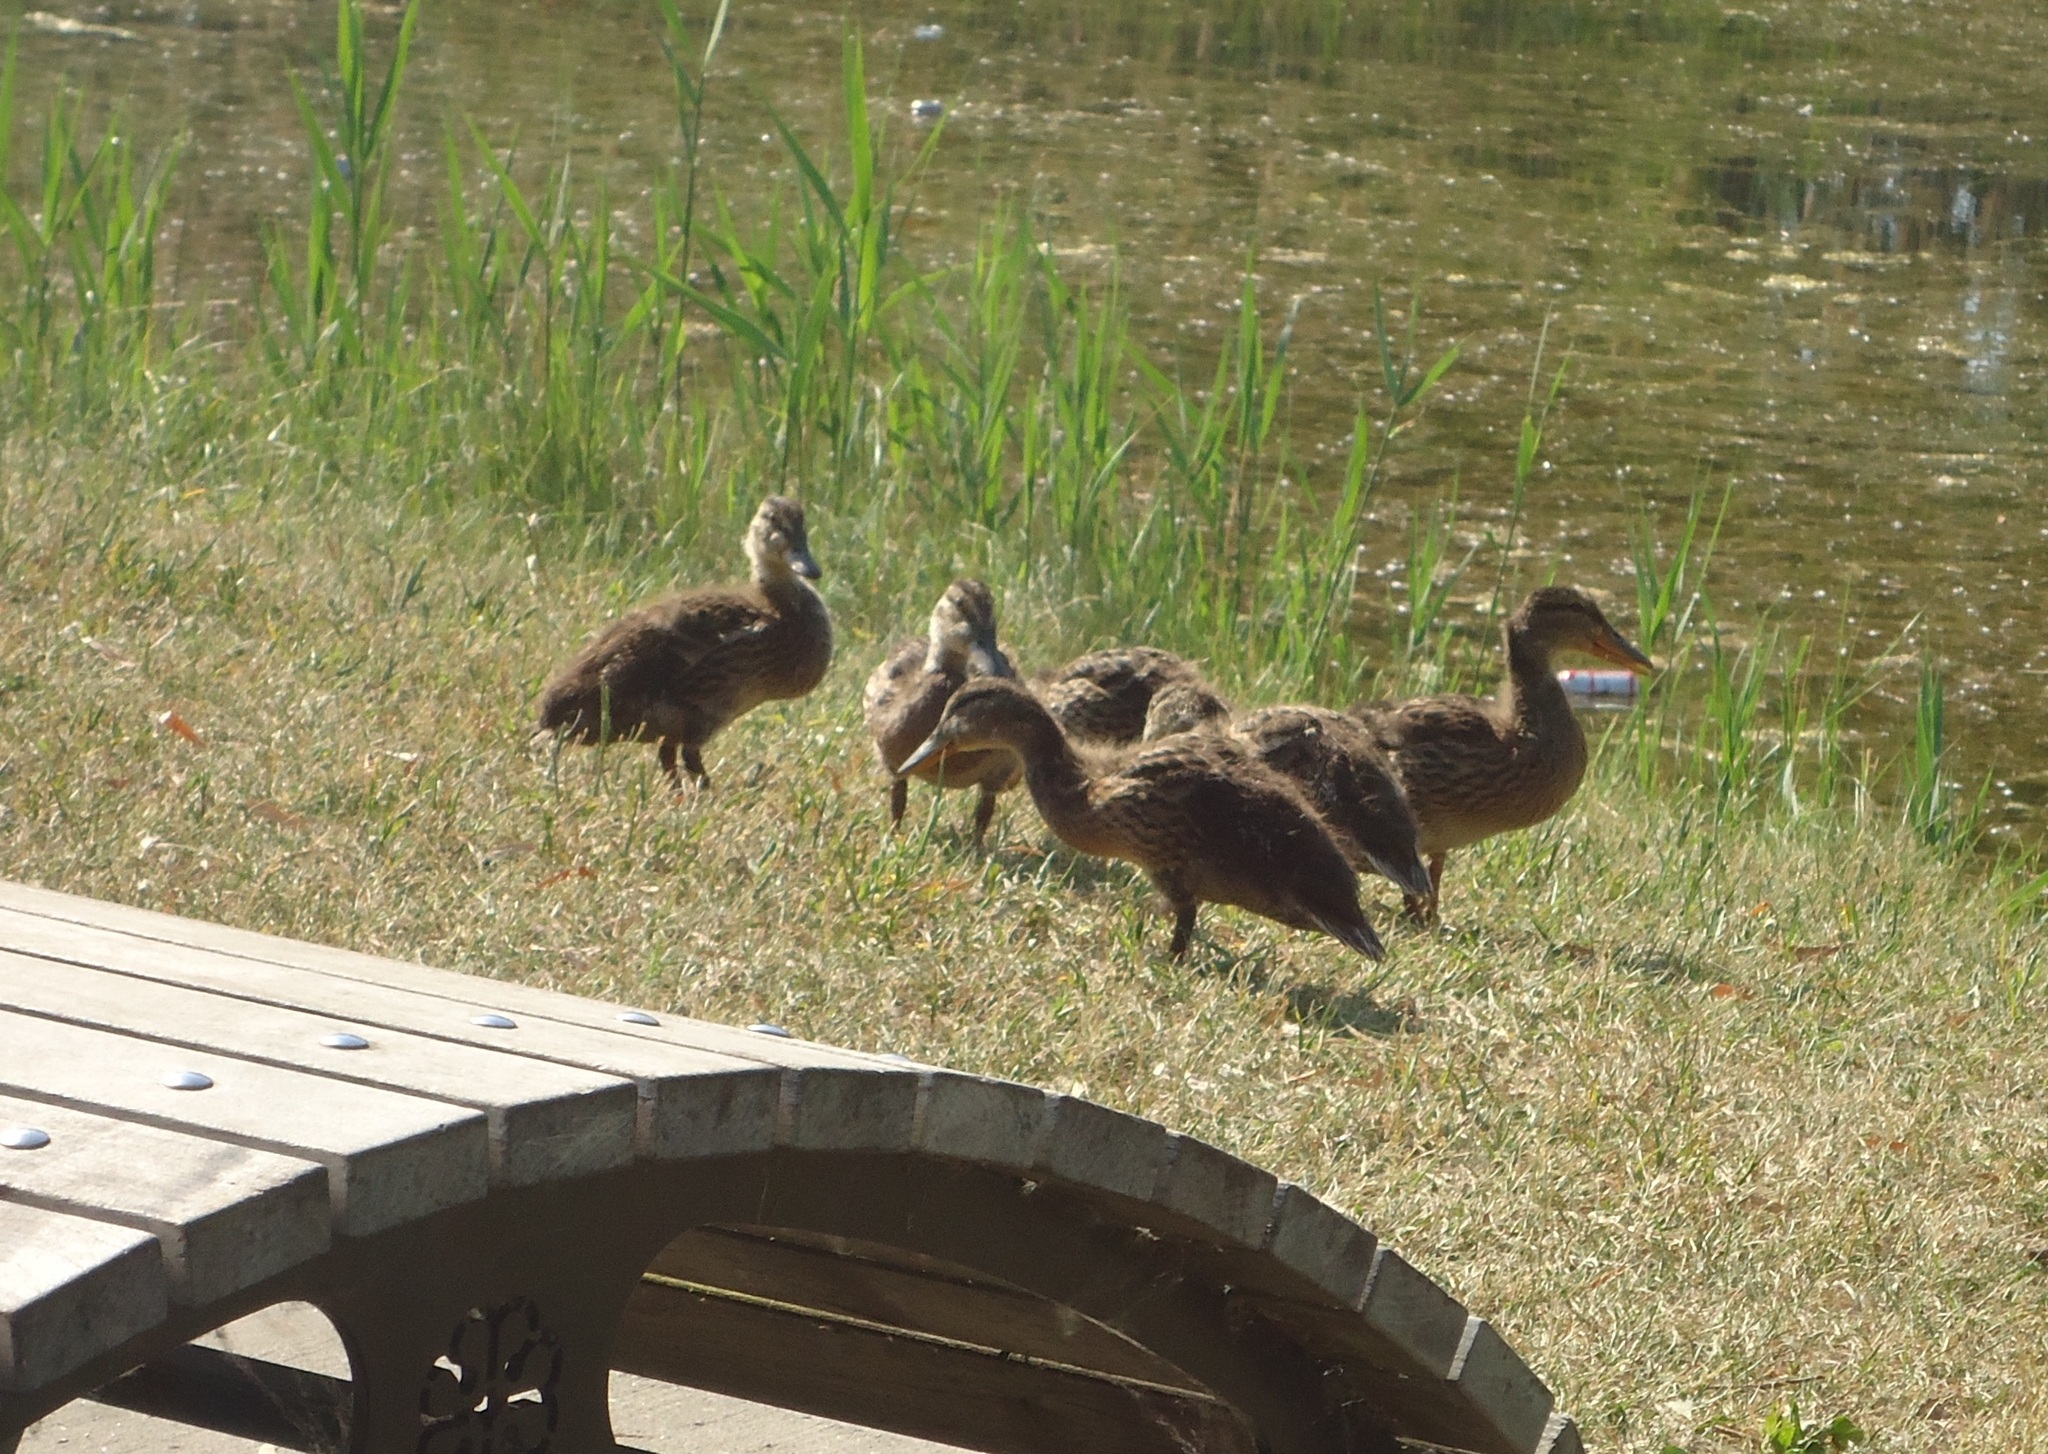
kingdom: Animalia
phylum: Chordata
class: Aves
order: Anseriformes
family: Anatidae
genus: Anas
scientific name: Anas platyrhynchos
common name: Mallard
